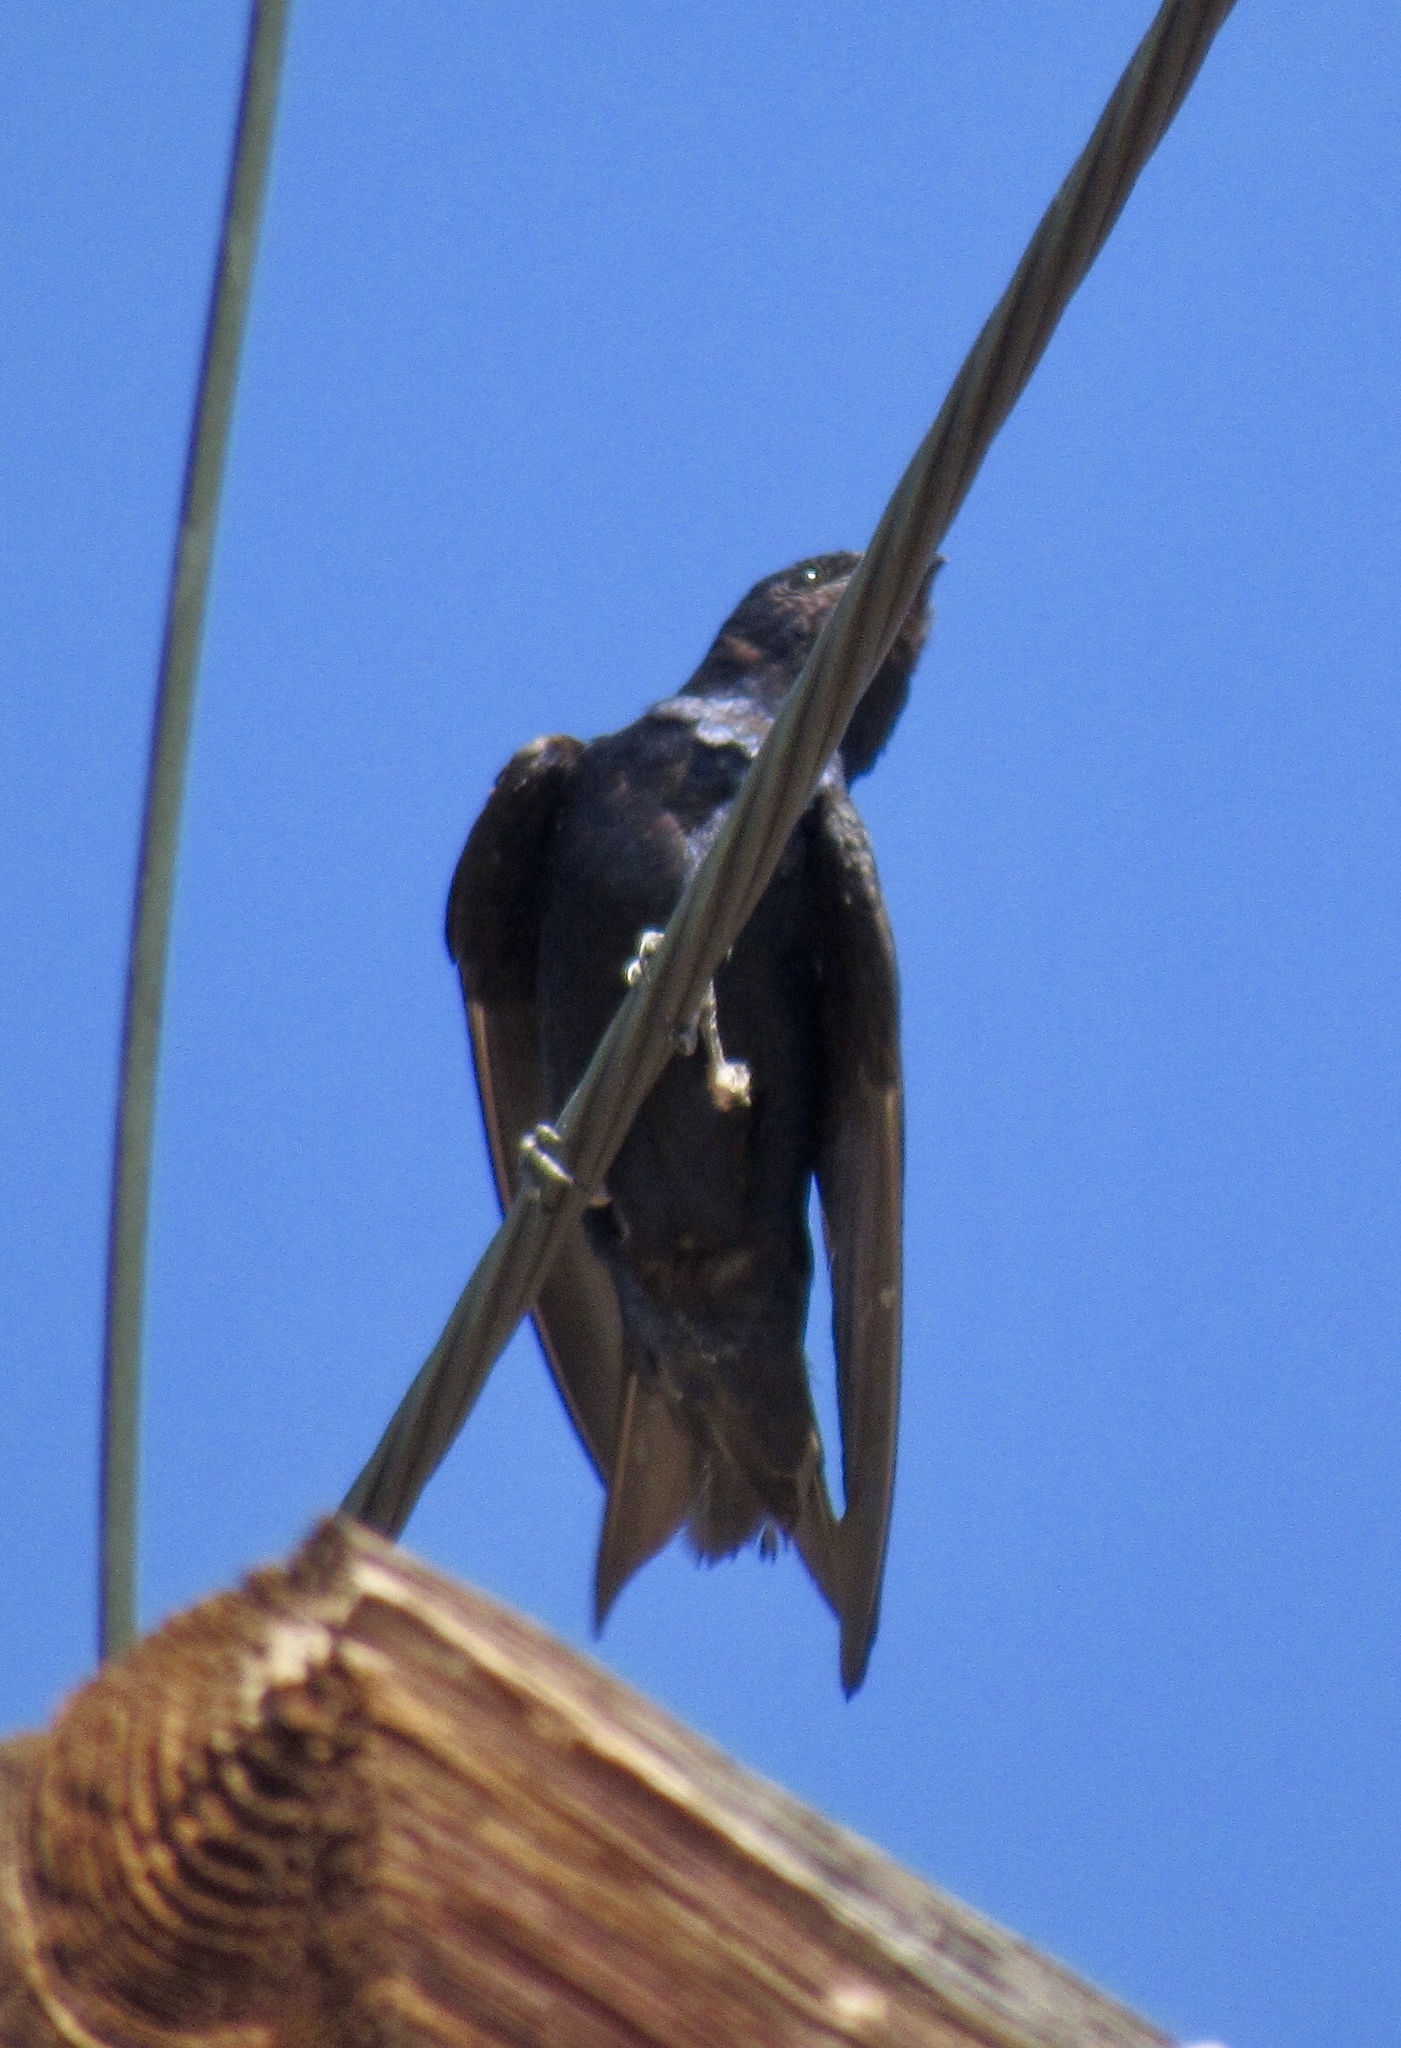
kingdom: Animalia
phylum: Chordata
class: Aves
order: Passeriformes
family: Hirundinidae
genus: Progne
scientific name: Progne subis
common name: Purple martin
